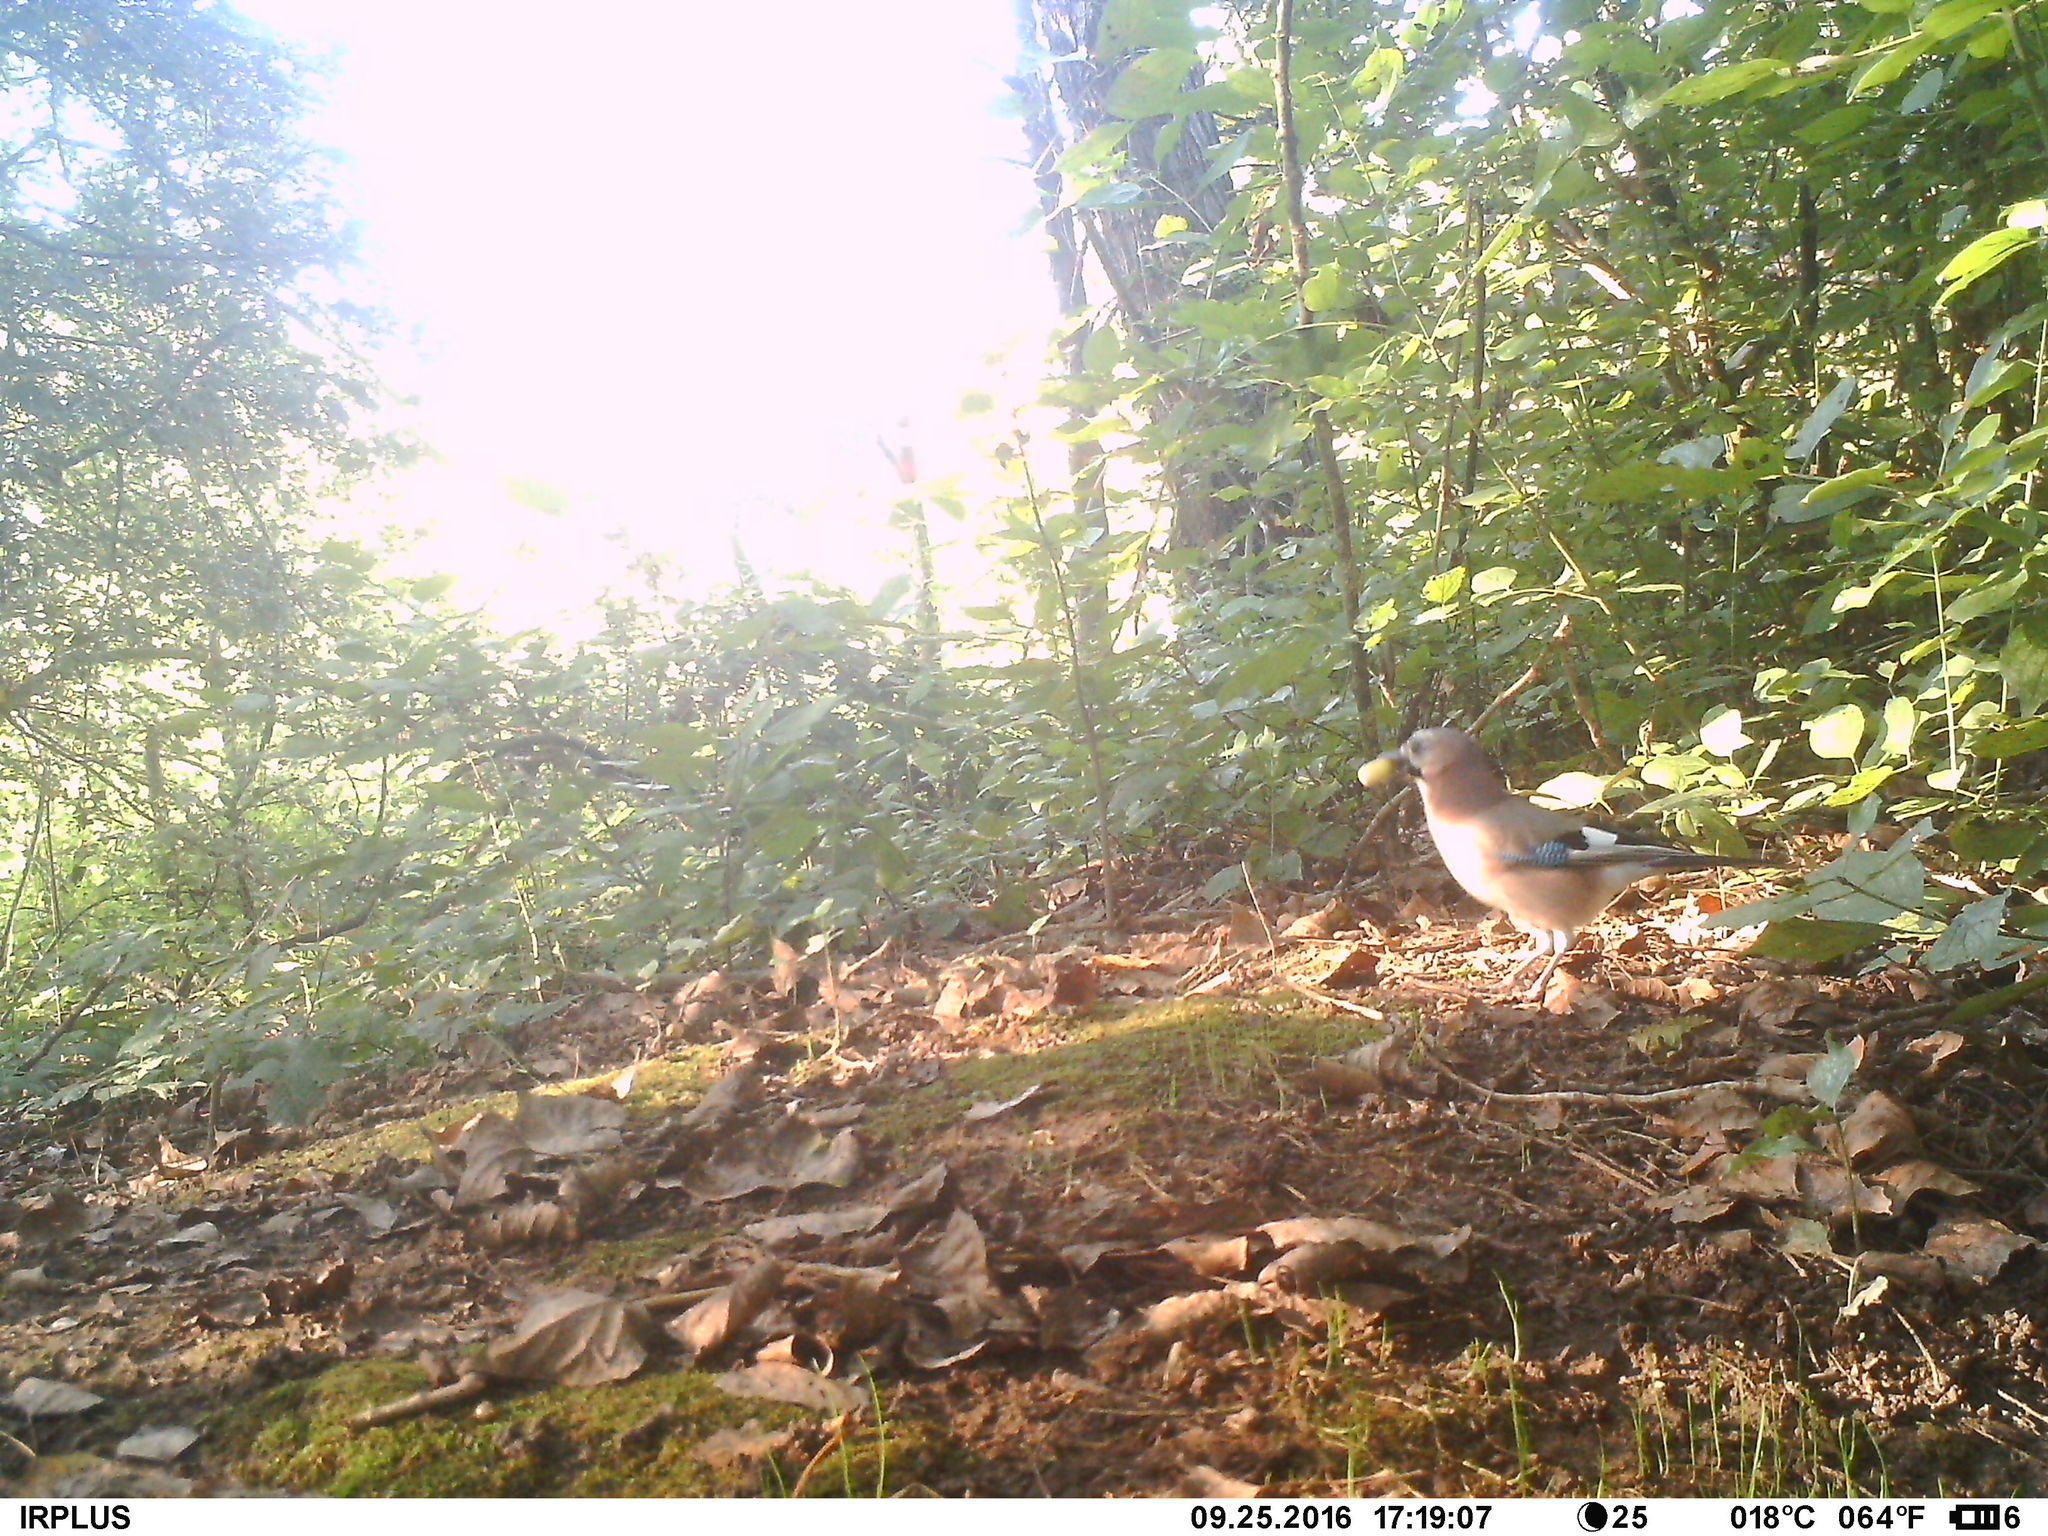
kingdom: Animalia
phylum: Chordata
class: Aves
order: Passeriformes
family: Corvidae
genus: Garrulus
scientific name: Garrulus glandarius
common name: Eurasian jay
